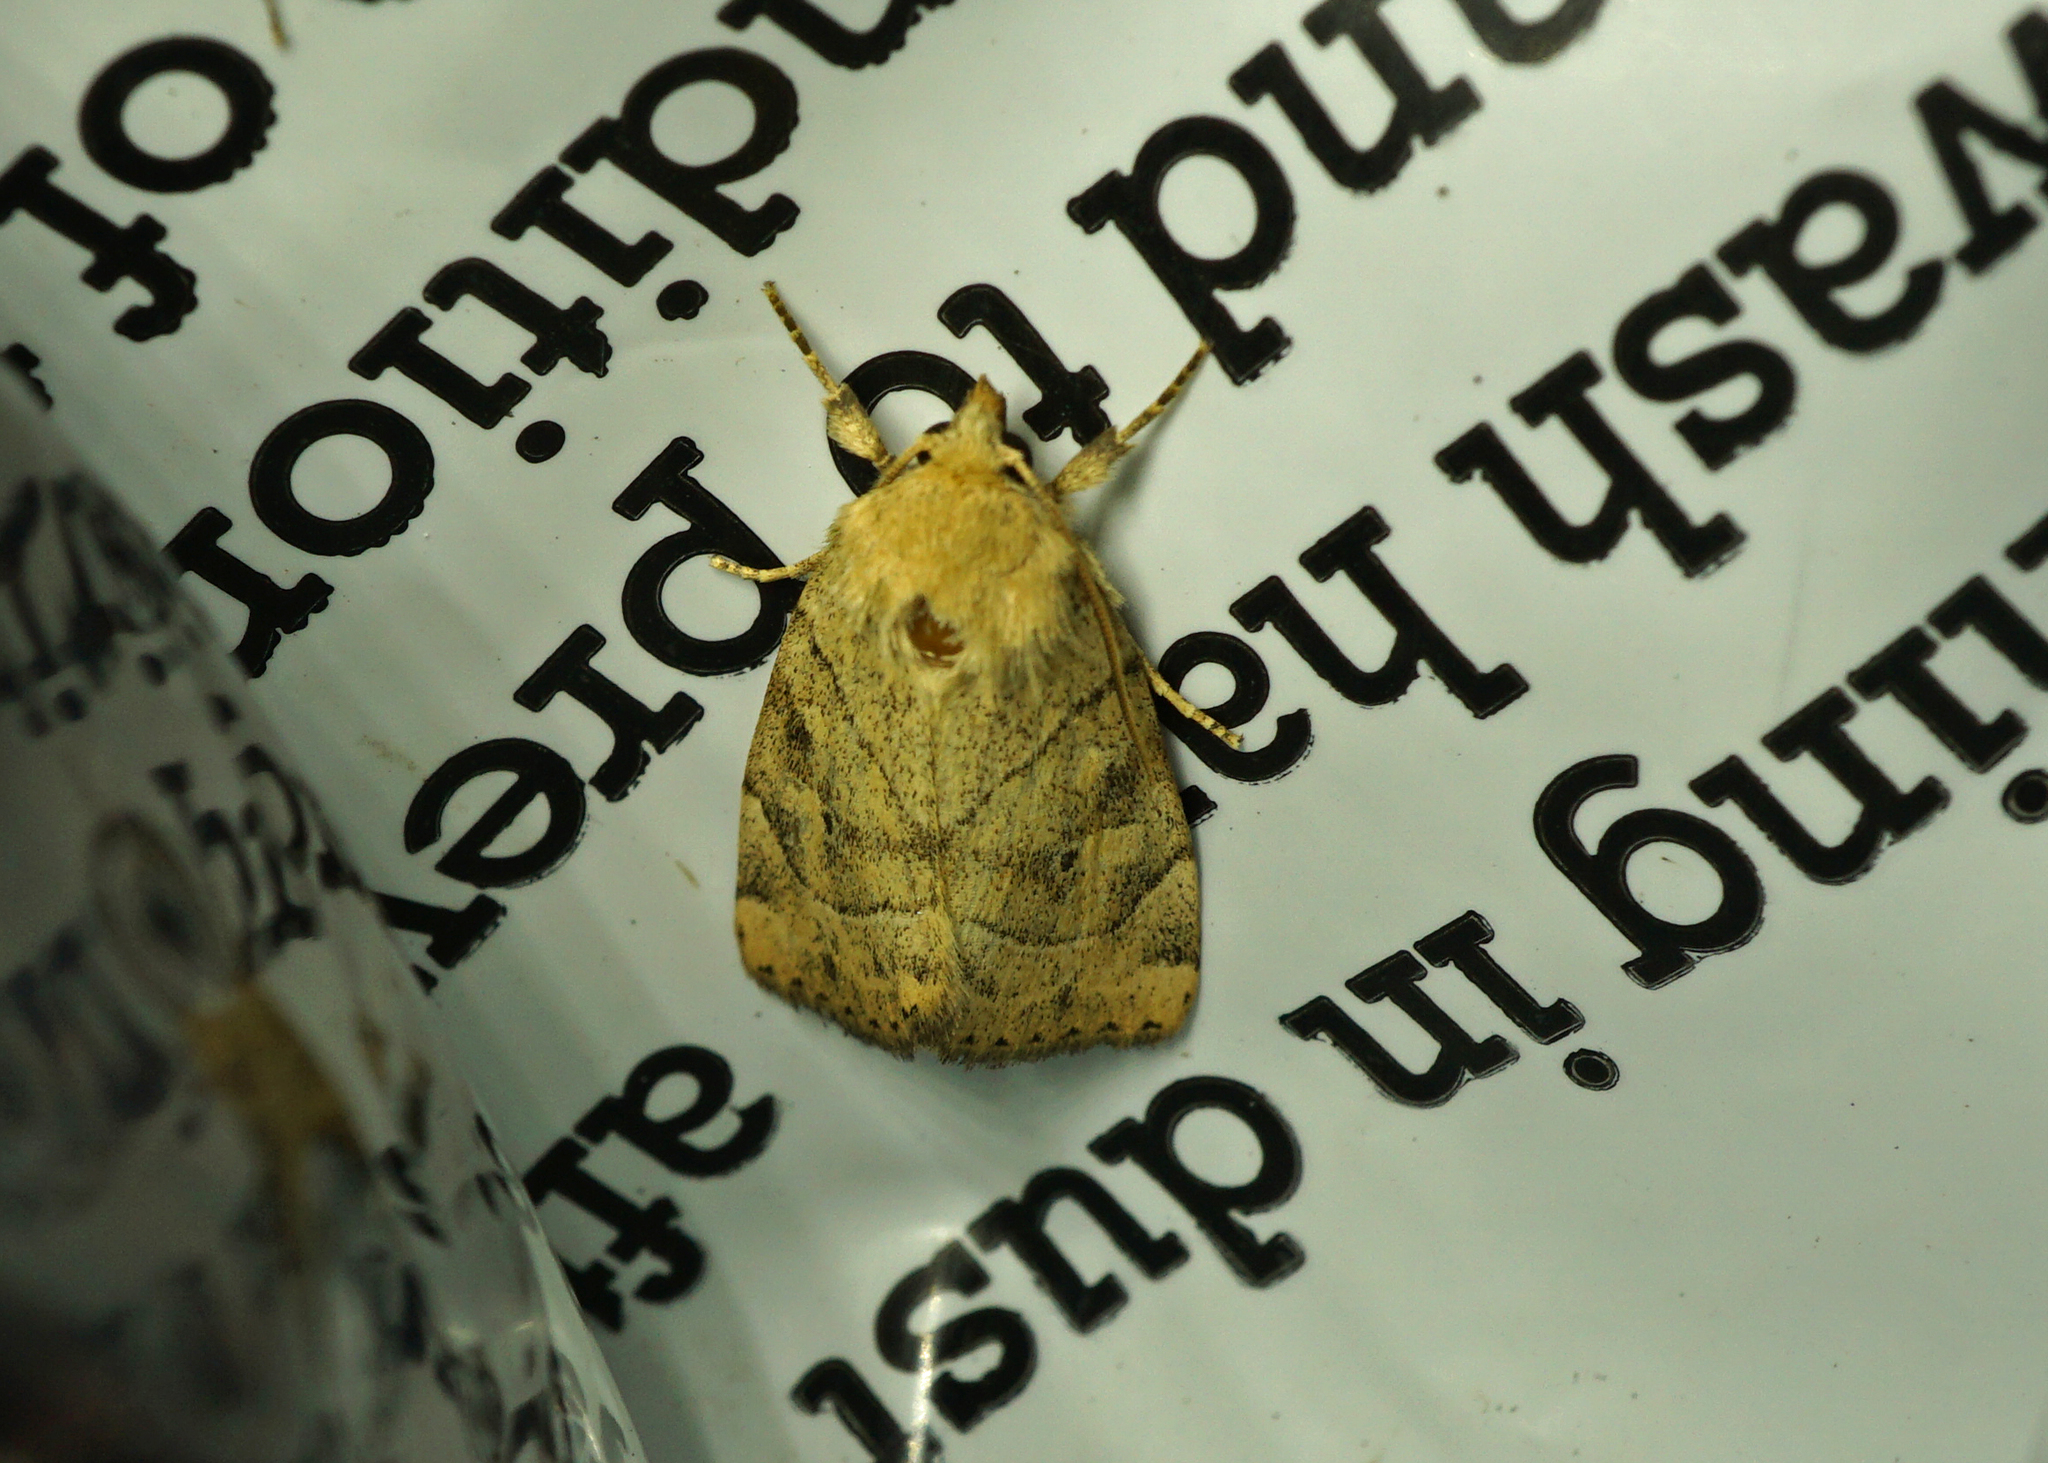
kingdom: Animalia
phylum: Arthropoda
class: Insecta
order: Lepidoptera
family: Noctuidae
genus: Cosmia
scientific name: Cosmia trapezina
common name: Dun-bar
